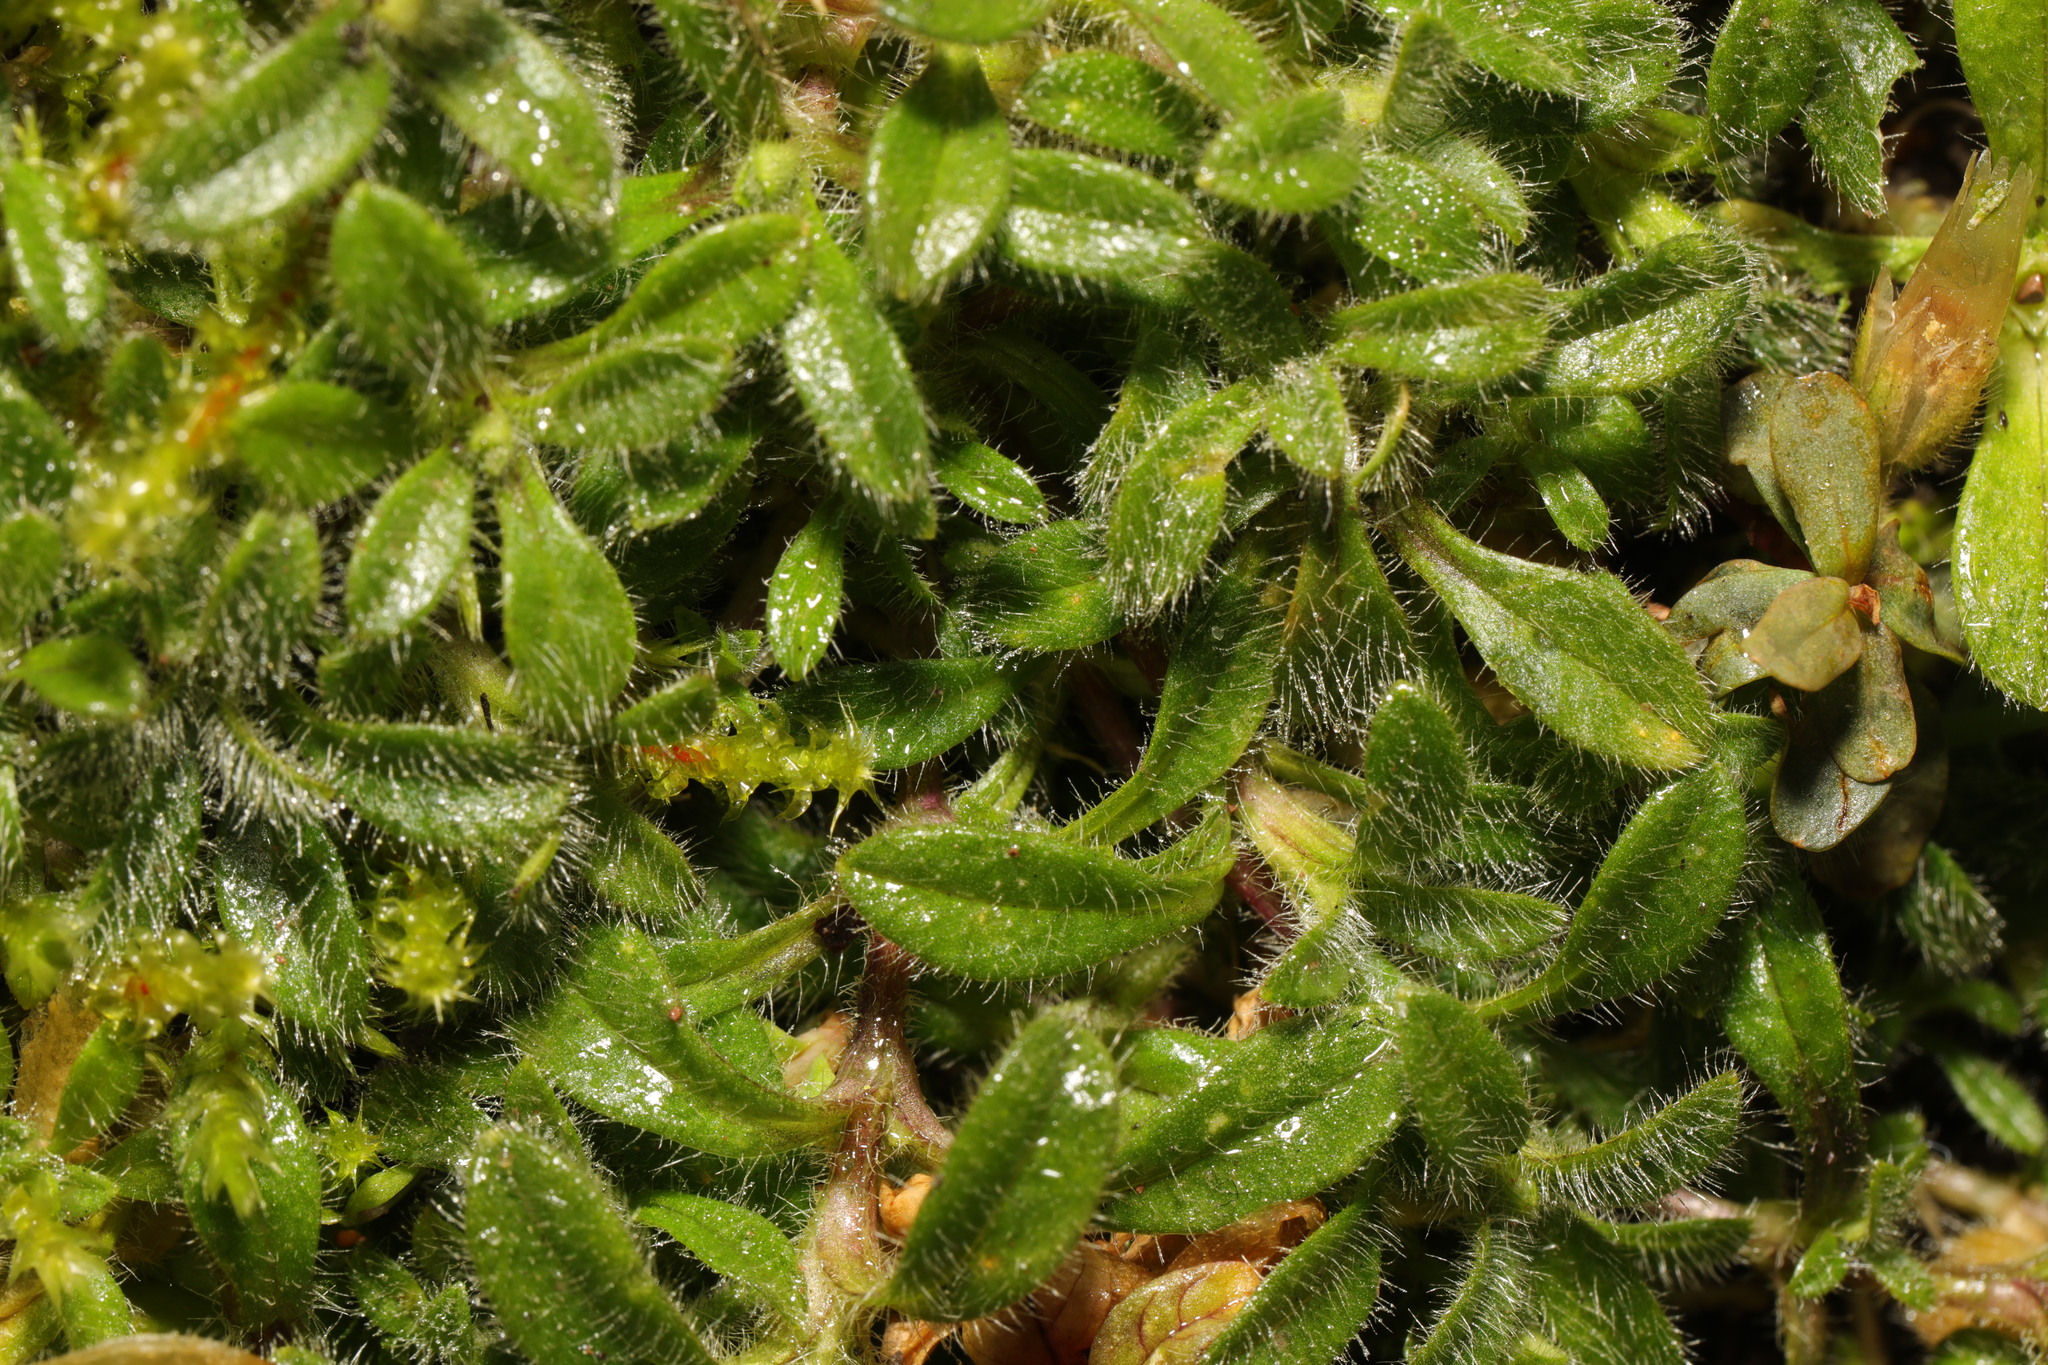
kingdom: Plantae
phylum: Tracheophyta
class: Magnoliopsida
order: Caryophyllales
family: Caryophyllaceae
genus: Cerastium
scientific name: Cerastium fontanum
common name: Common mouse-ear
